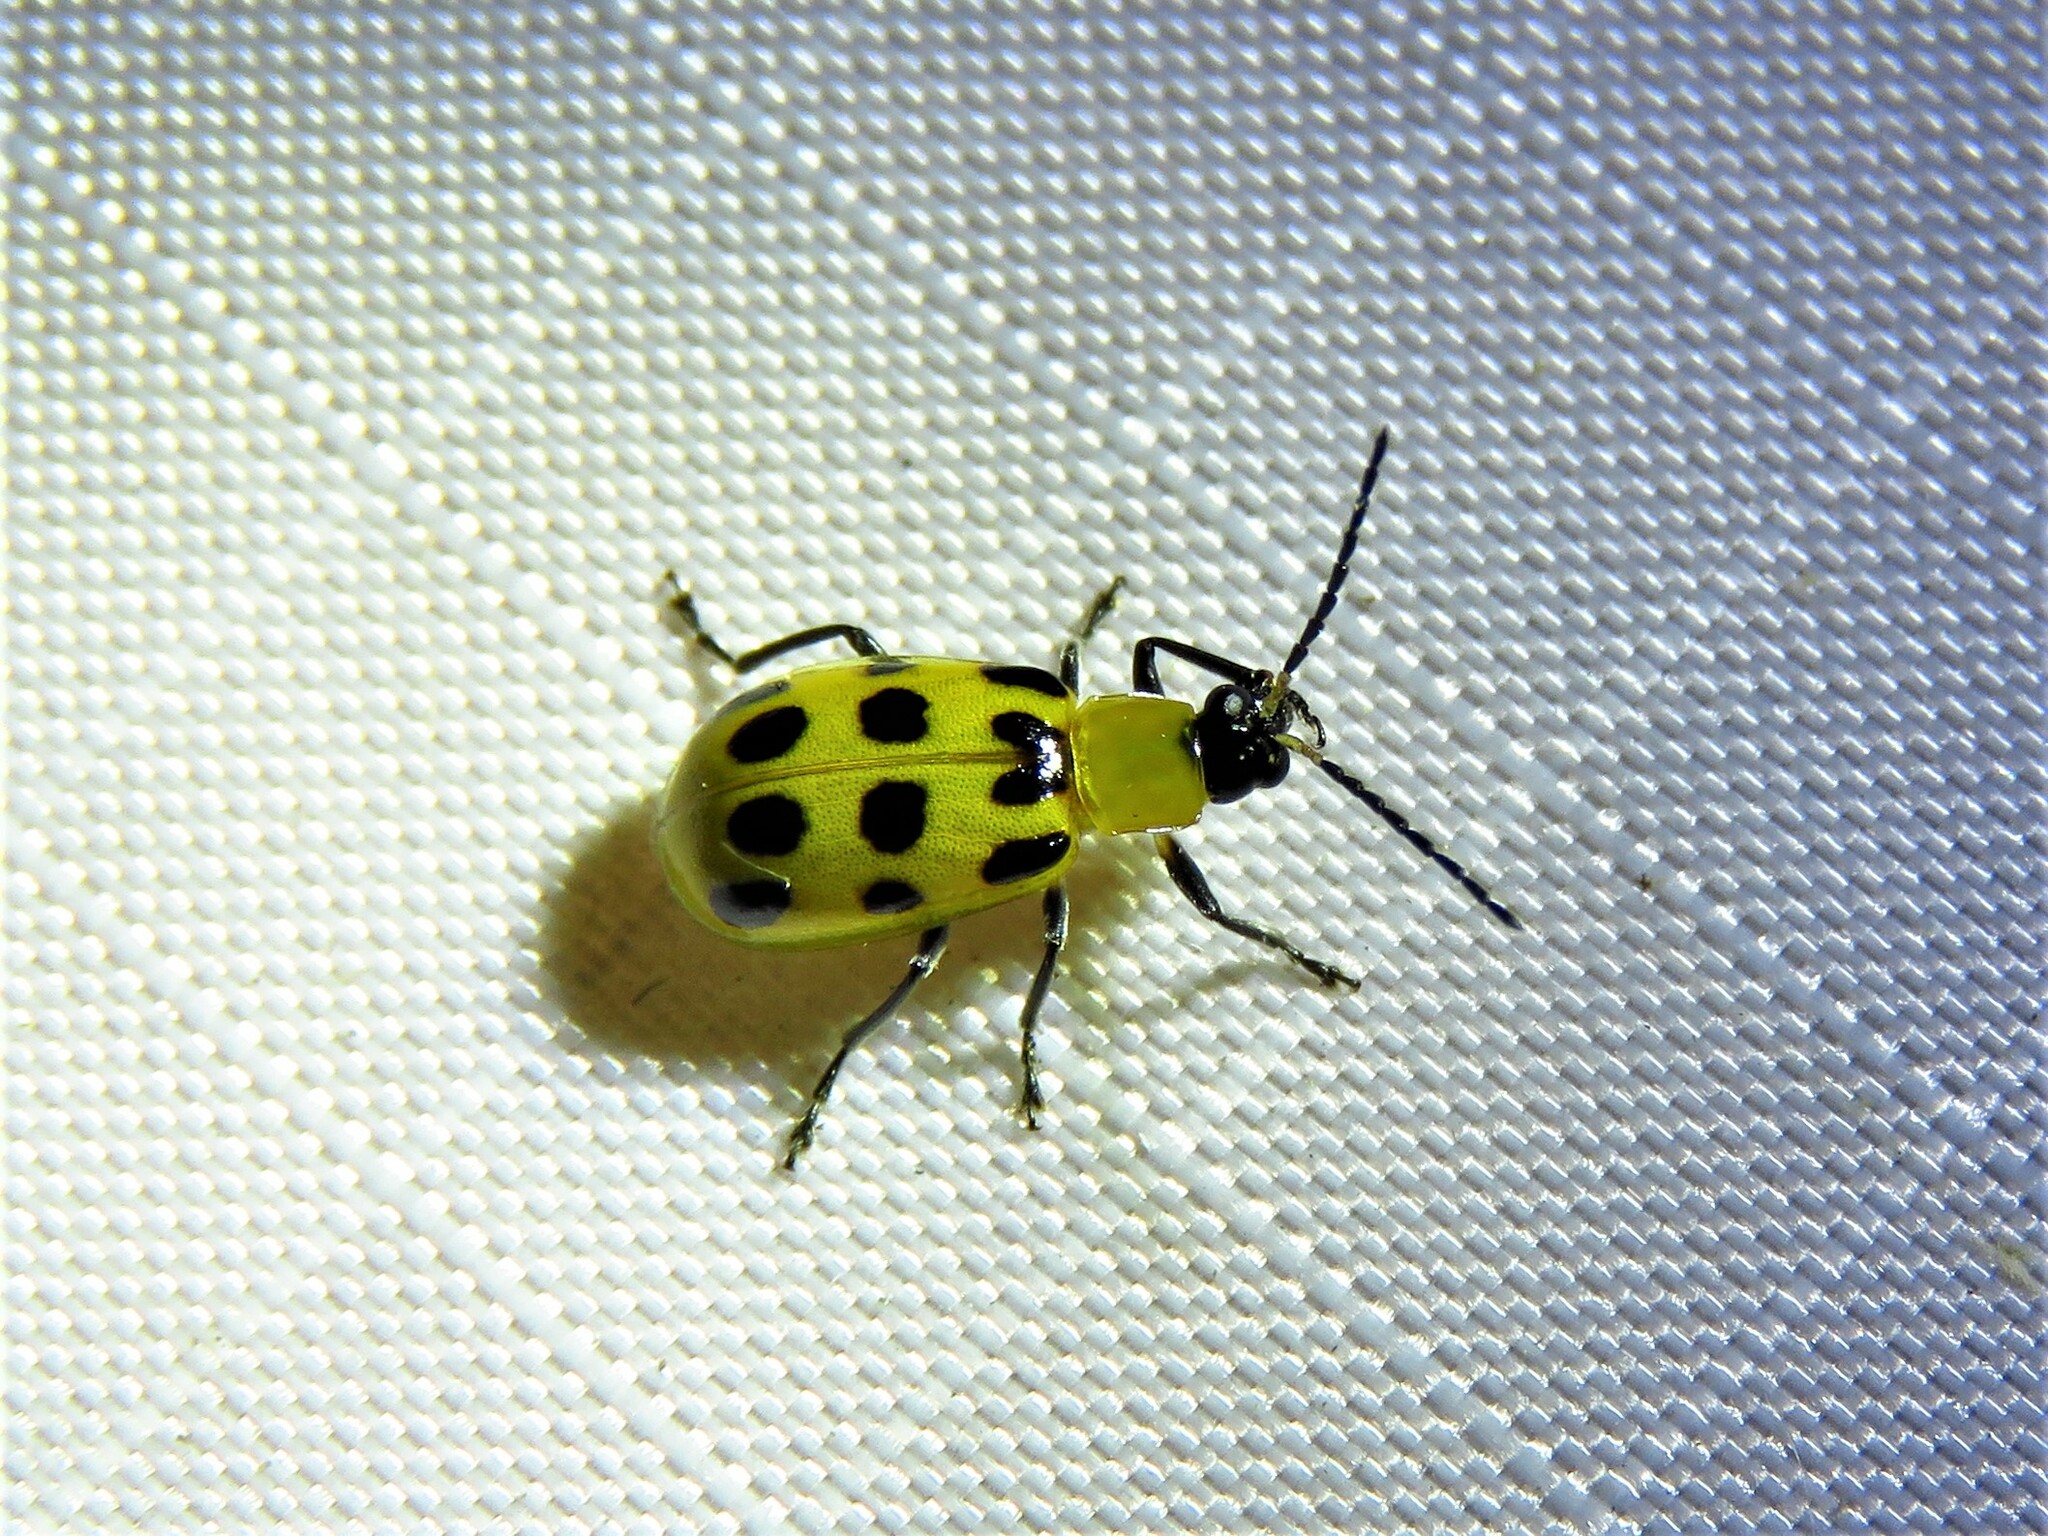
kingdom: Animalia
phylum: Arthropoda
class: Insecta
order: Coleoptera
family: Chrysomelidae
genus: Diabrotica
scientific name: Diabrotica undecimpunctata
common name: Spotted cucumber beetle
